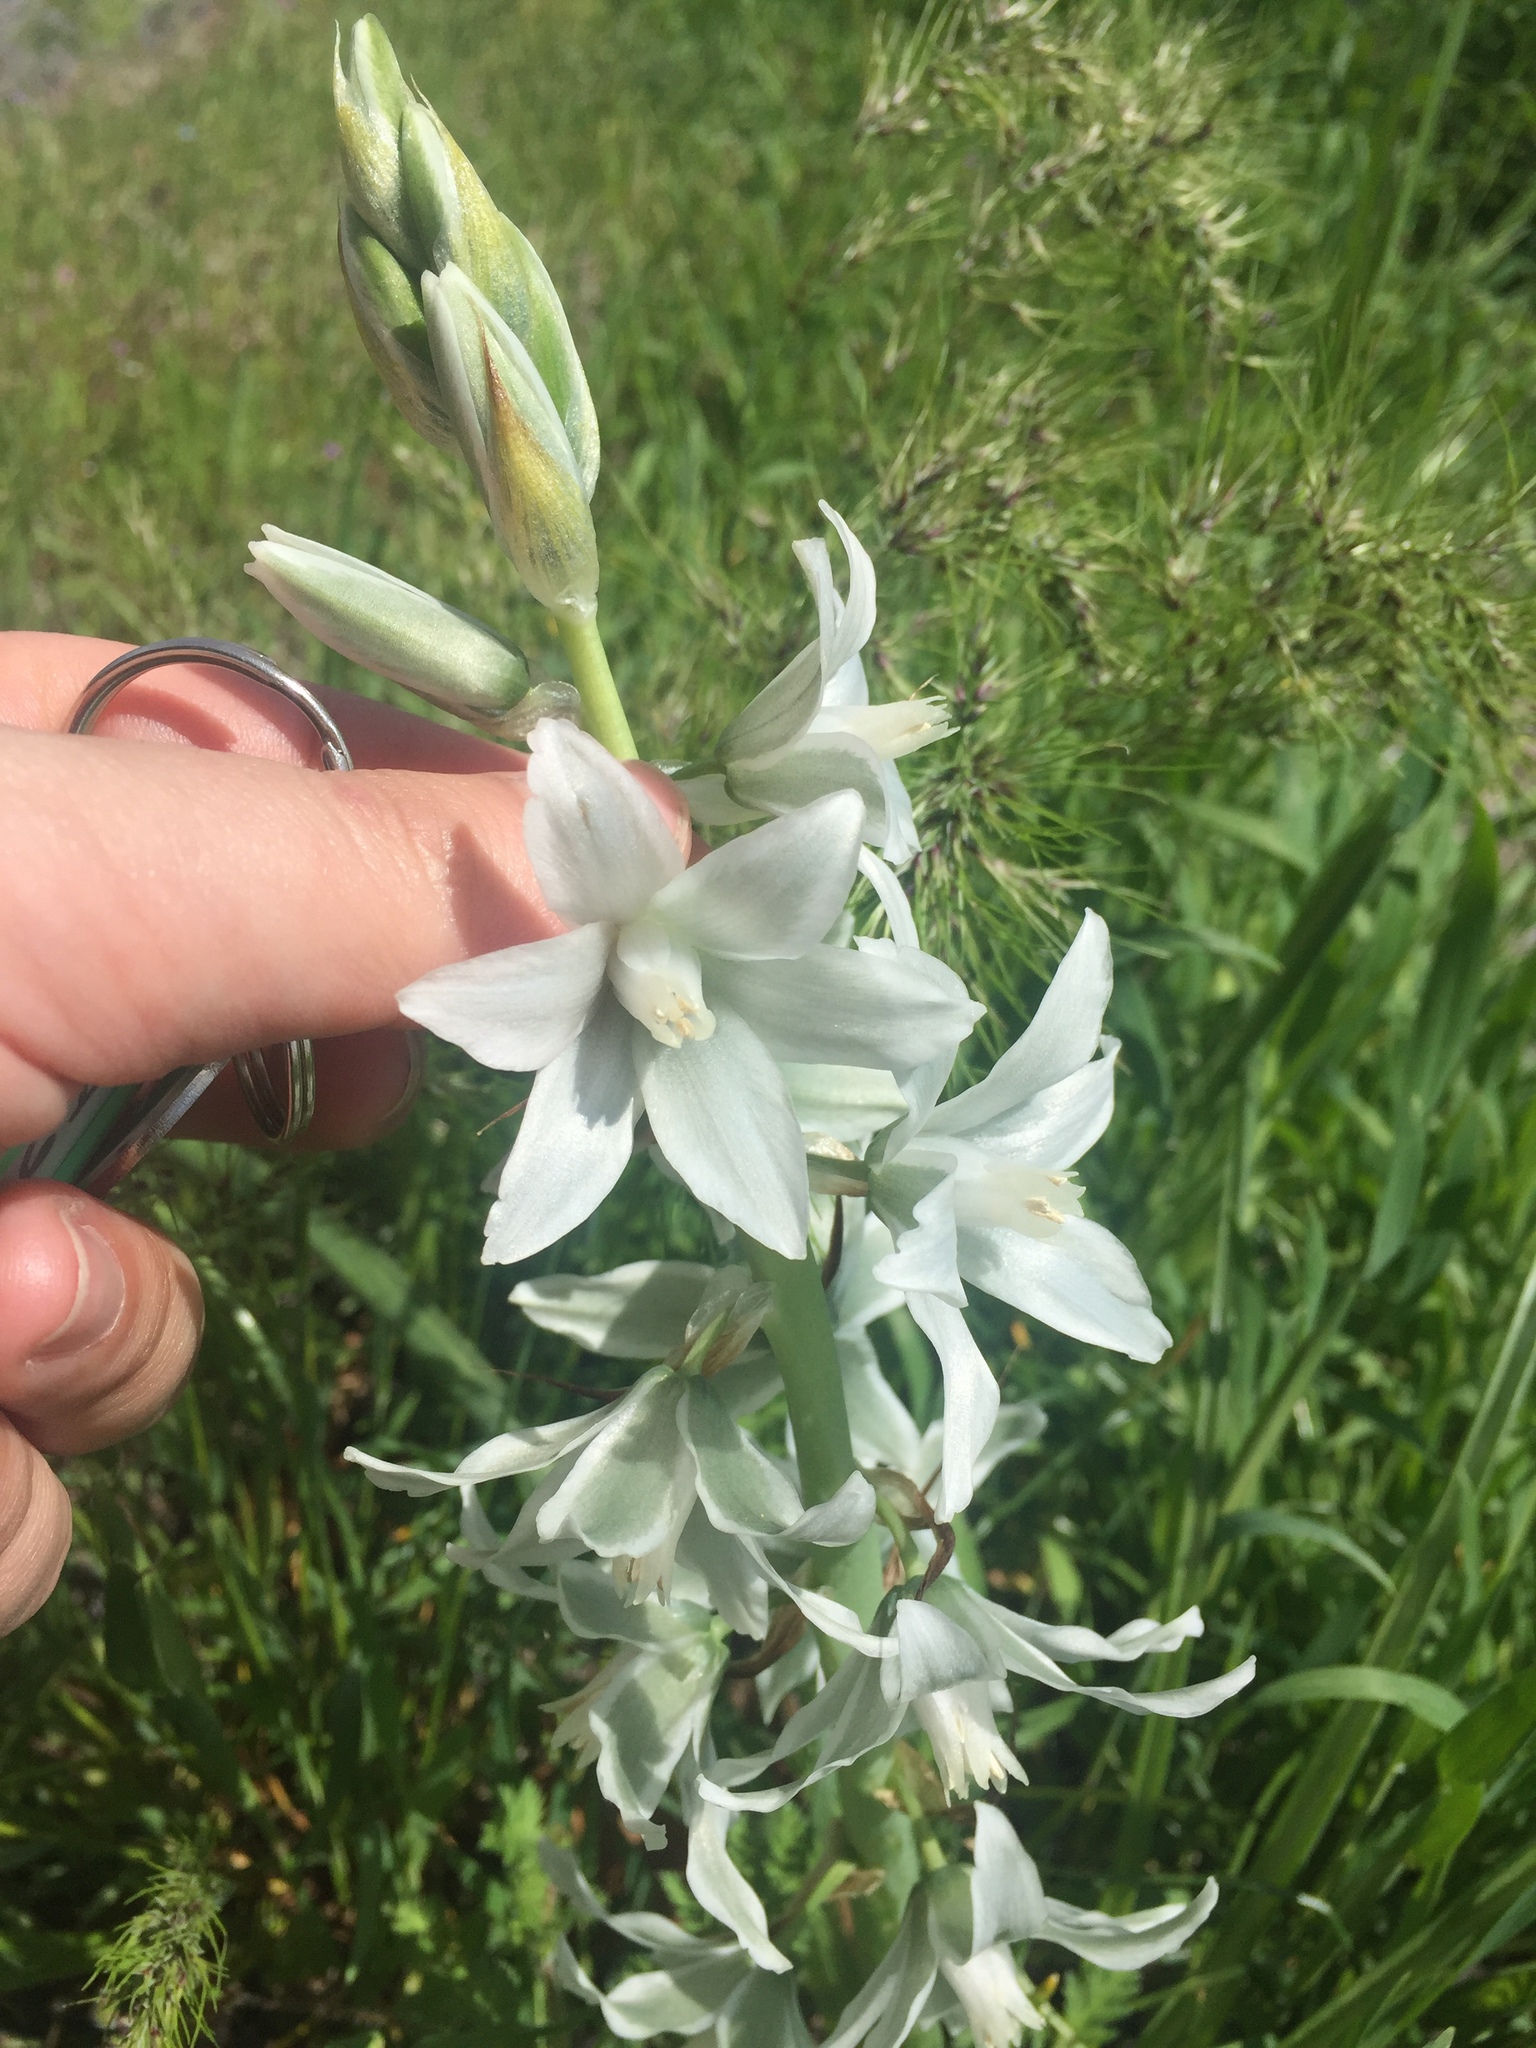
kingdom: Plantae
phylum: Tracheophyta
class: Liliopsida
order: Asparagales
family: Asparagaceae
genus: Ornithogalum
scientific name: Ornithogalum nutans
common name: Drooping star-of-bethlehem
